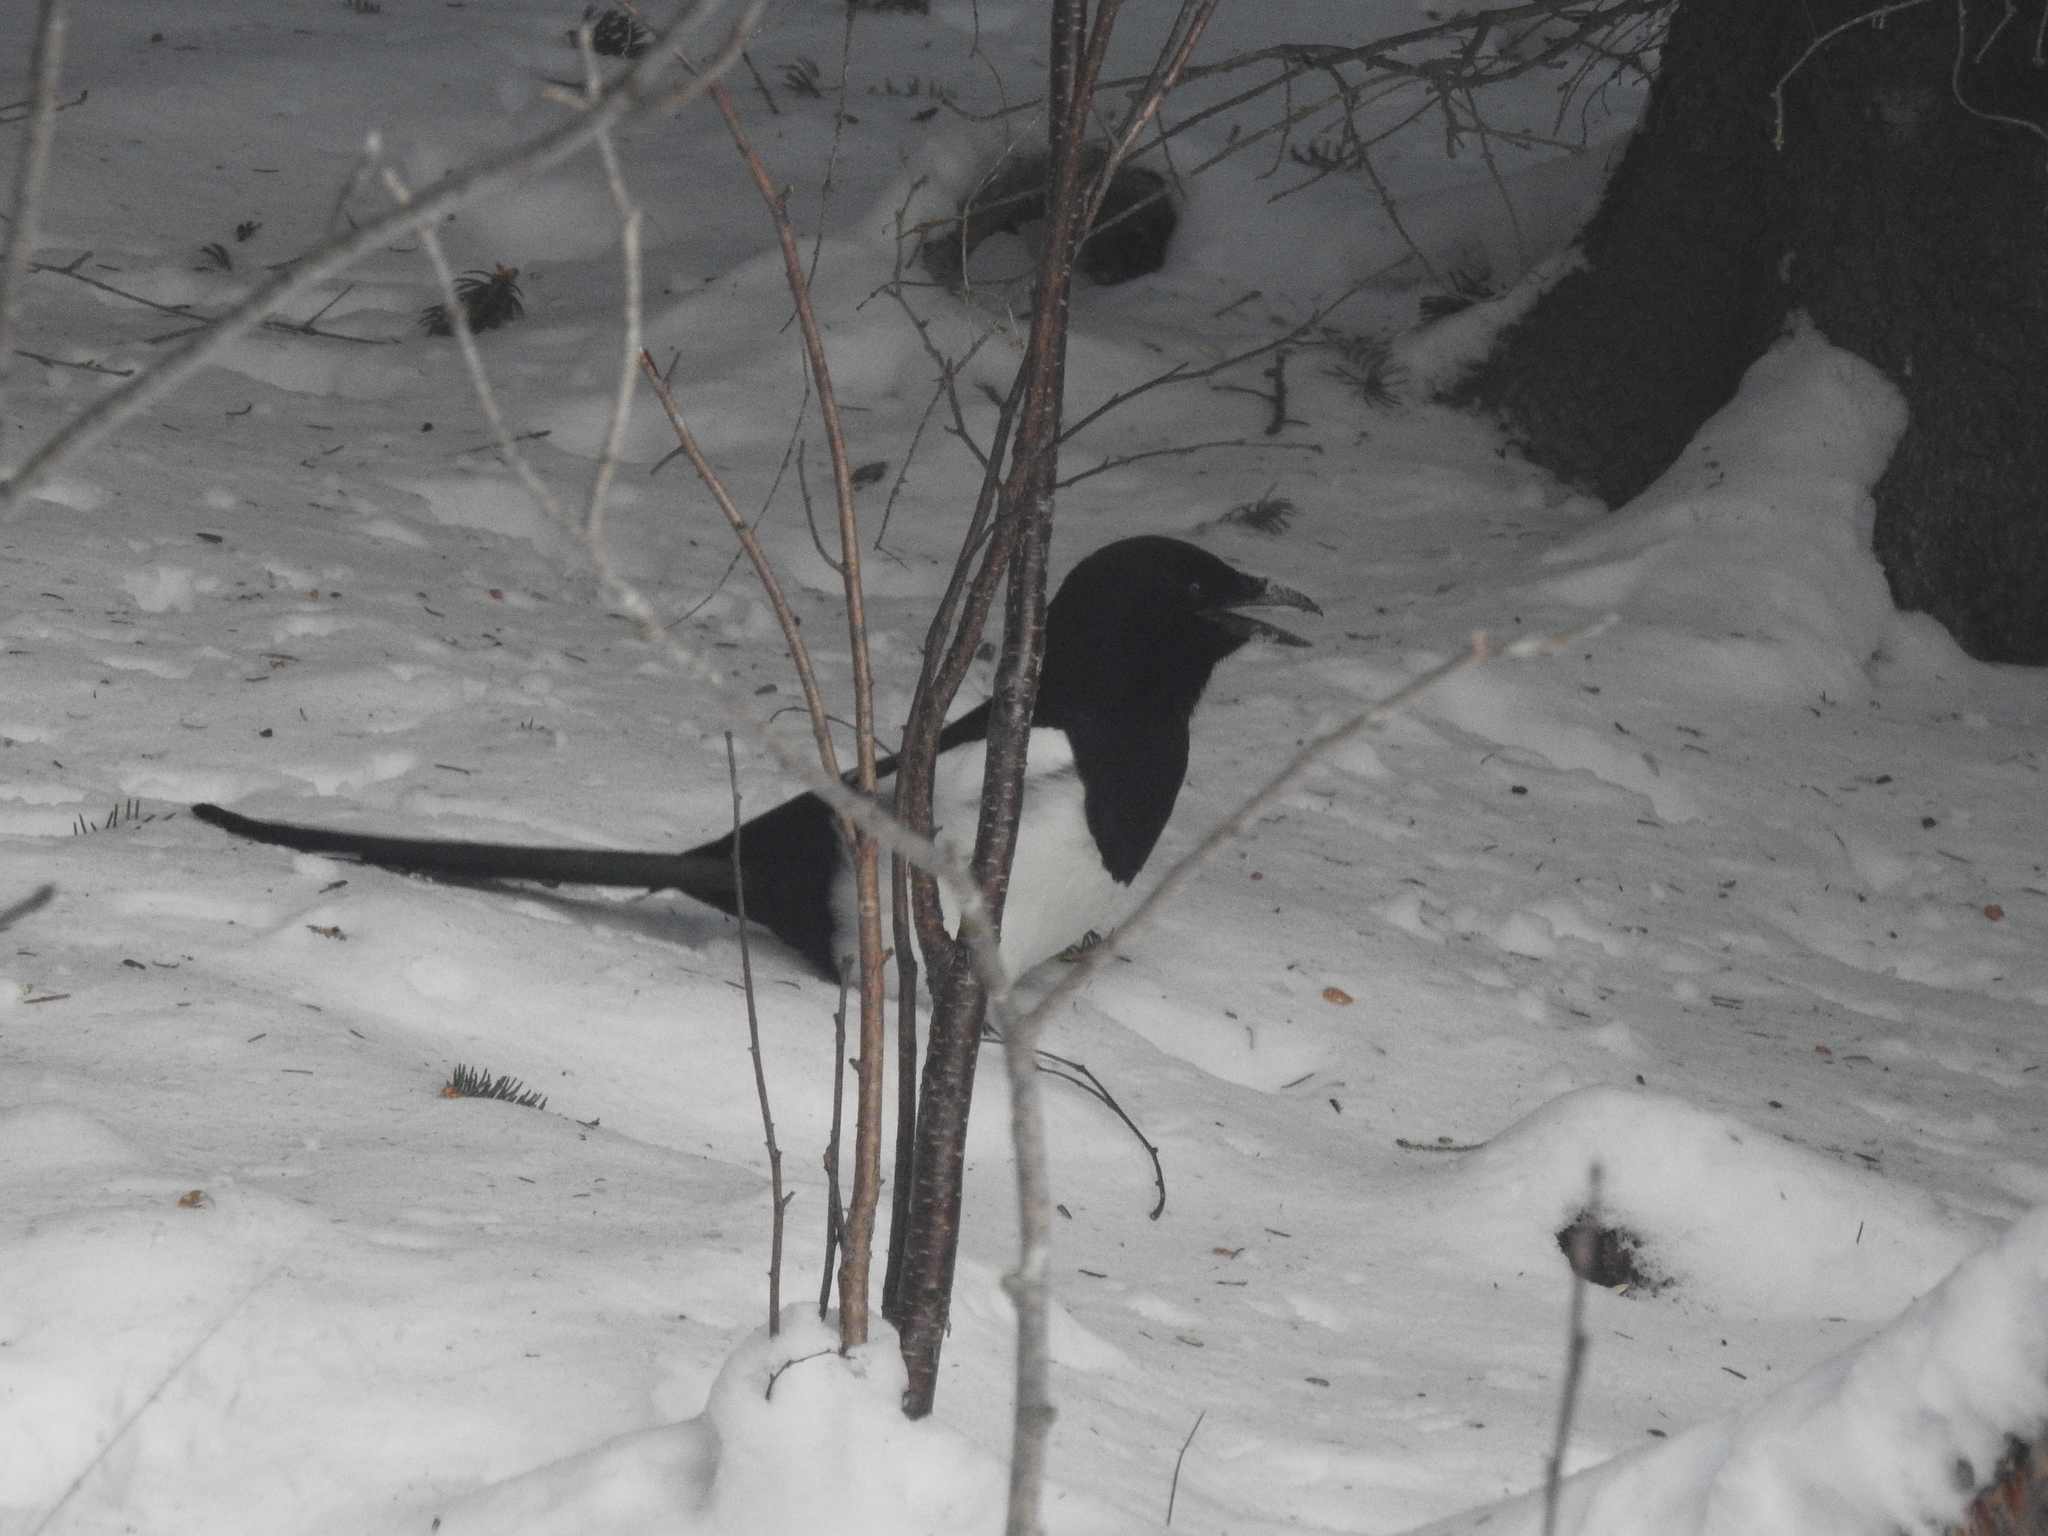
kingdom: Animalia
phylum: Chordata
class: Aves
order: Passeriformes
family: Corvidae
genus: Pica
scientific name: Pica pica
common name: Eurasian magpie
